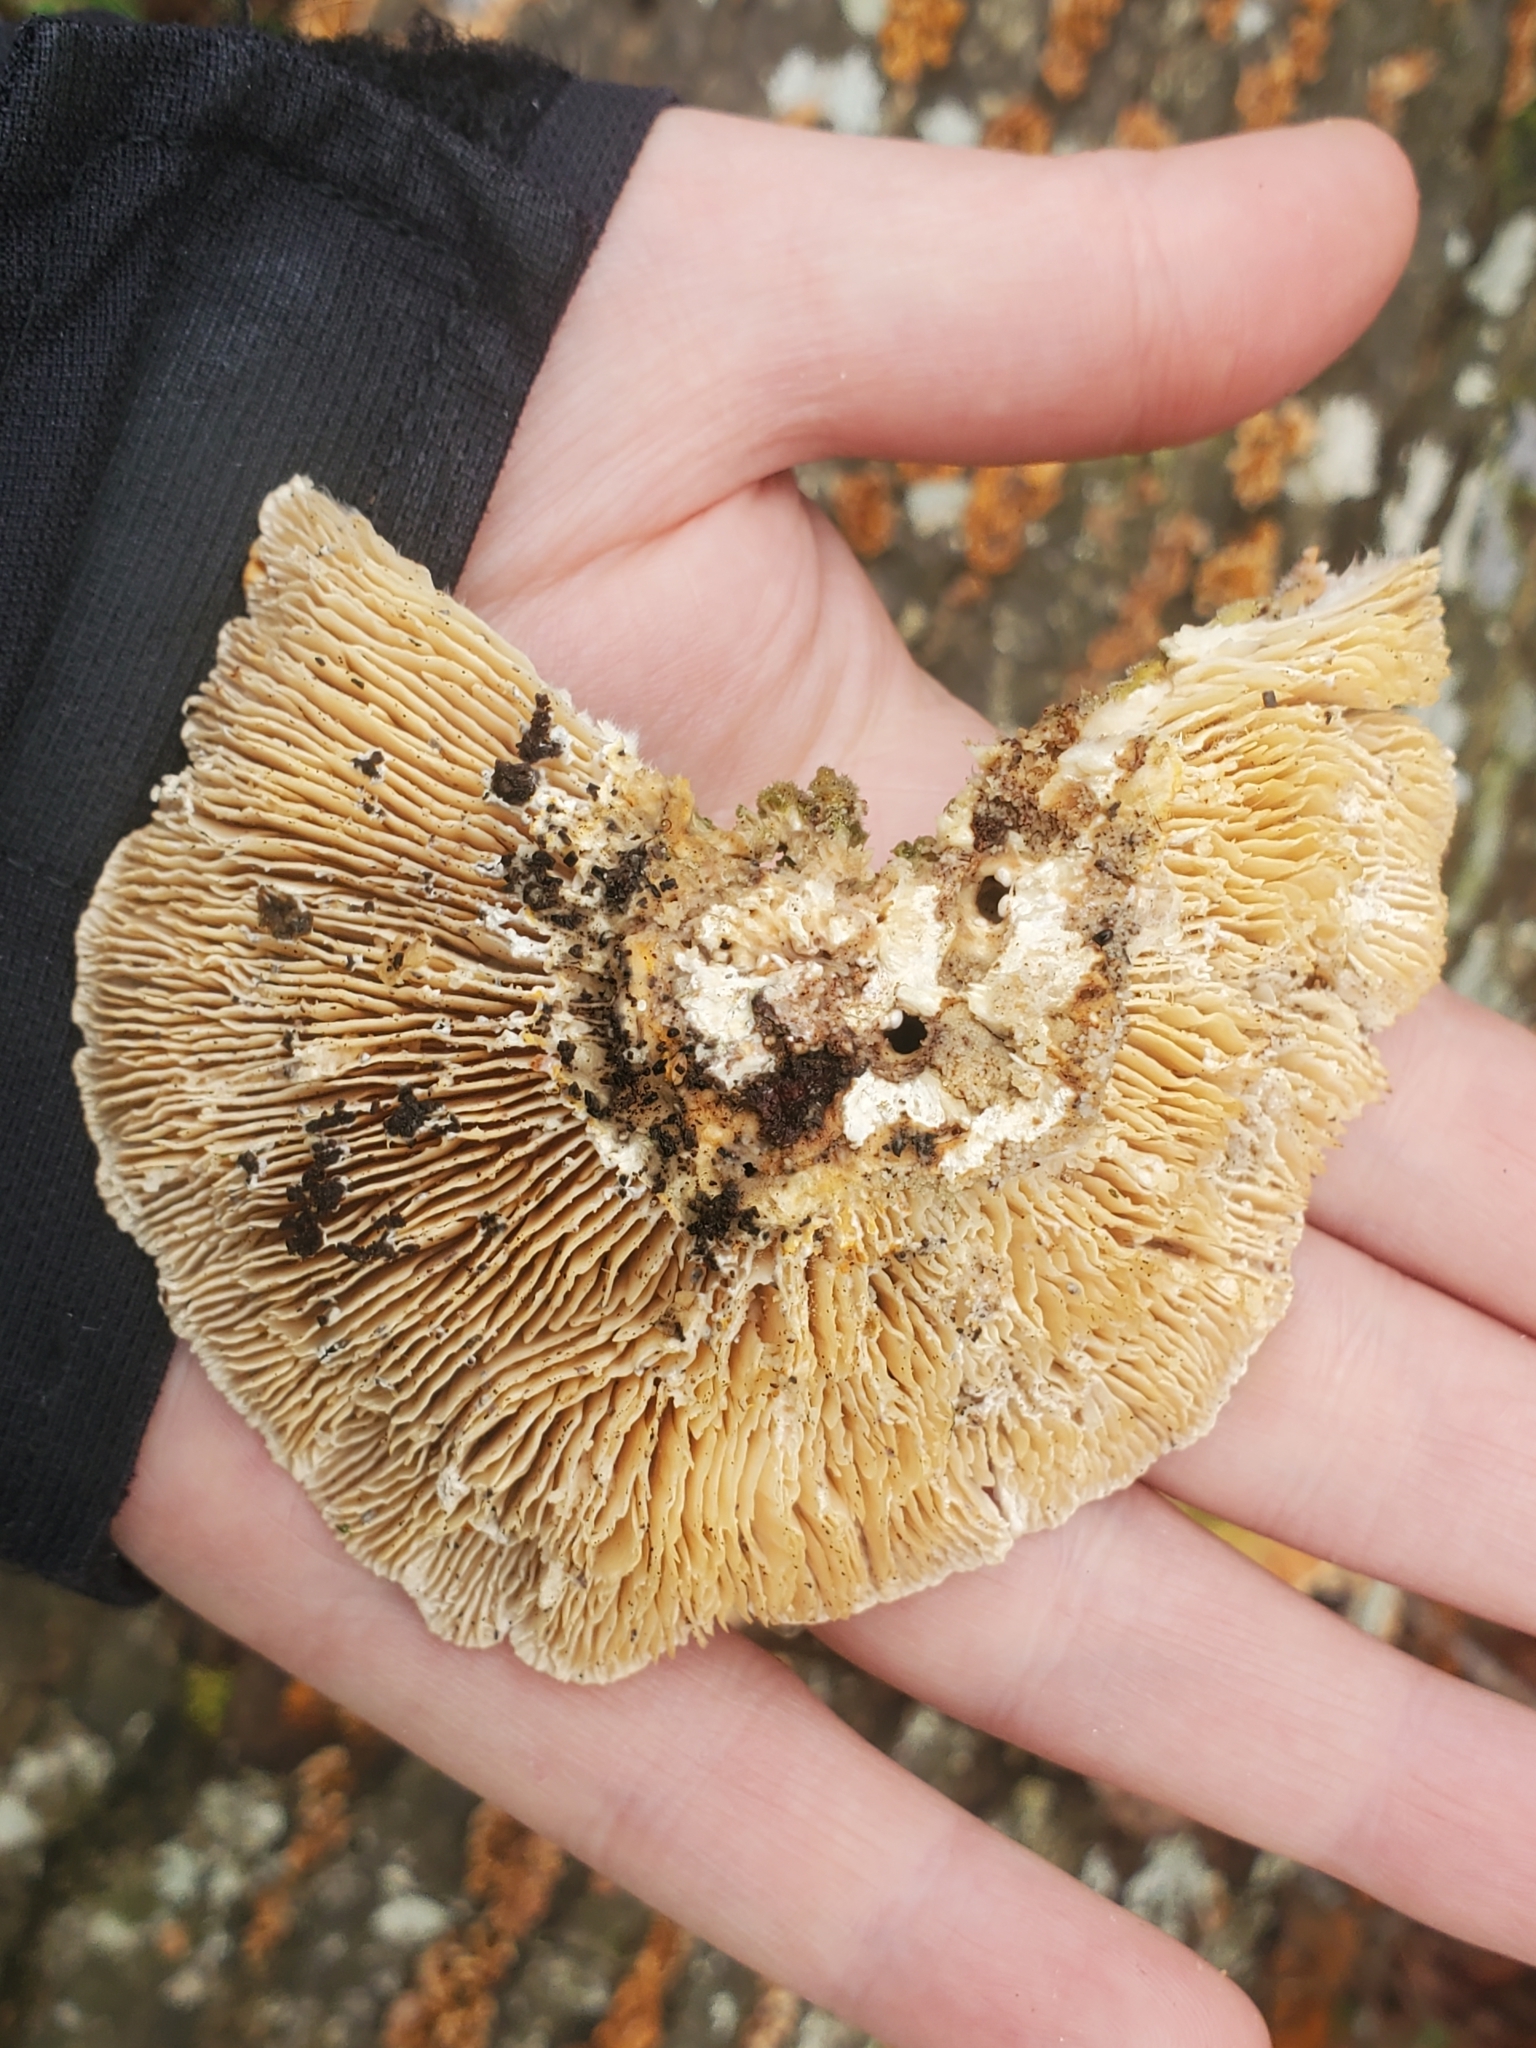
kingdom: Fungi
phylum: Basidiomycota
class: Agaricomycetes
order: Polyporales
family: Polyporaceae
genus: Lenzites
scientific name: Lenzites betulinus
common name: Birch mazegill
